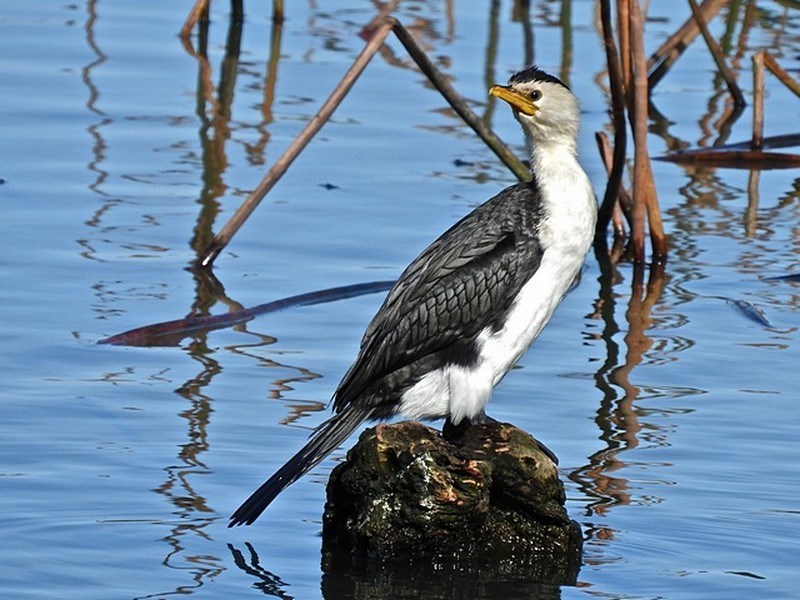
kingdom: Animalia
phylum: Chordata
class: Aves
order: Suliformes
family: Phalacrocoracidae
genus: Microcarbo
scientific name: Microcarbo melanoleucos
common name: Little pied cormorant
